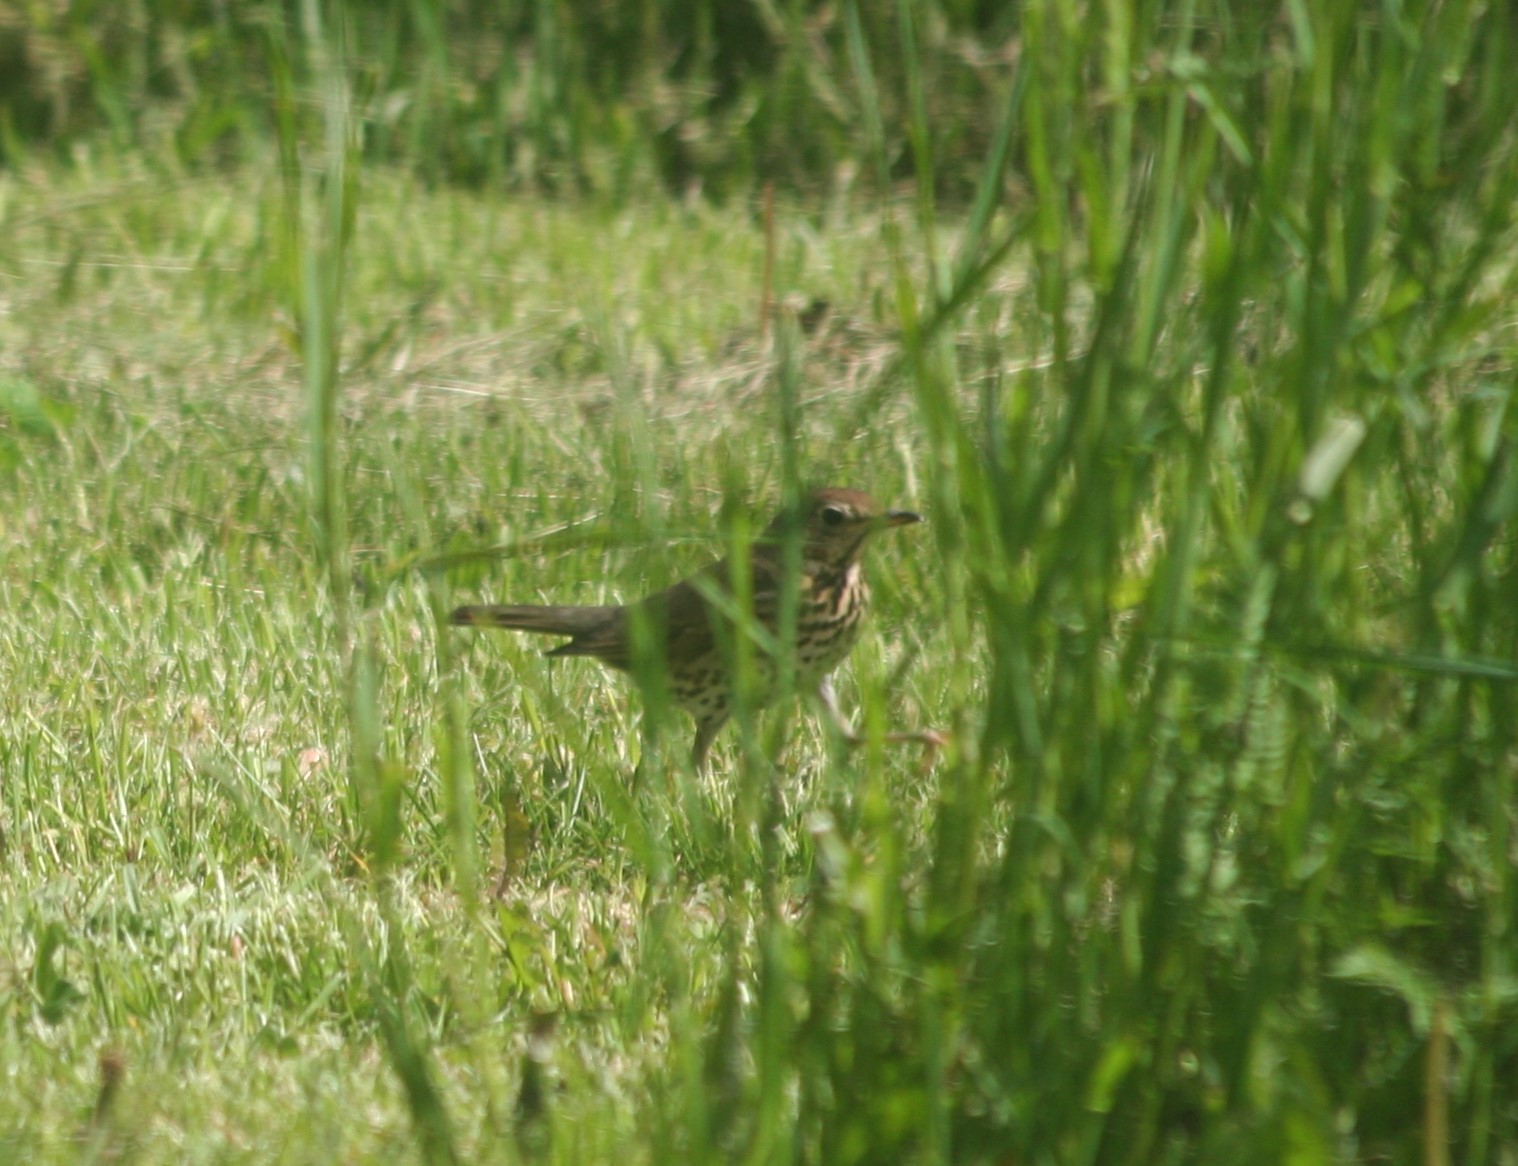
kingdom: Animalia
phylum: Chordata
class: Aves
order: Passeriformes
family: Turdidae
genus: Turdus
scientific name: Turdus philomelos
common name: Song thrush
